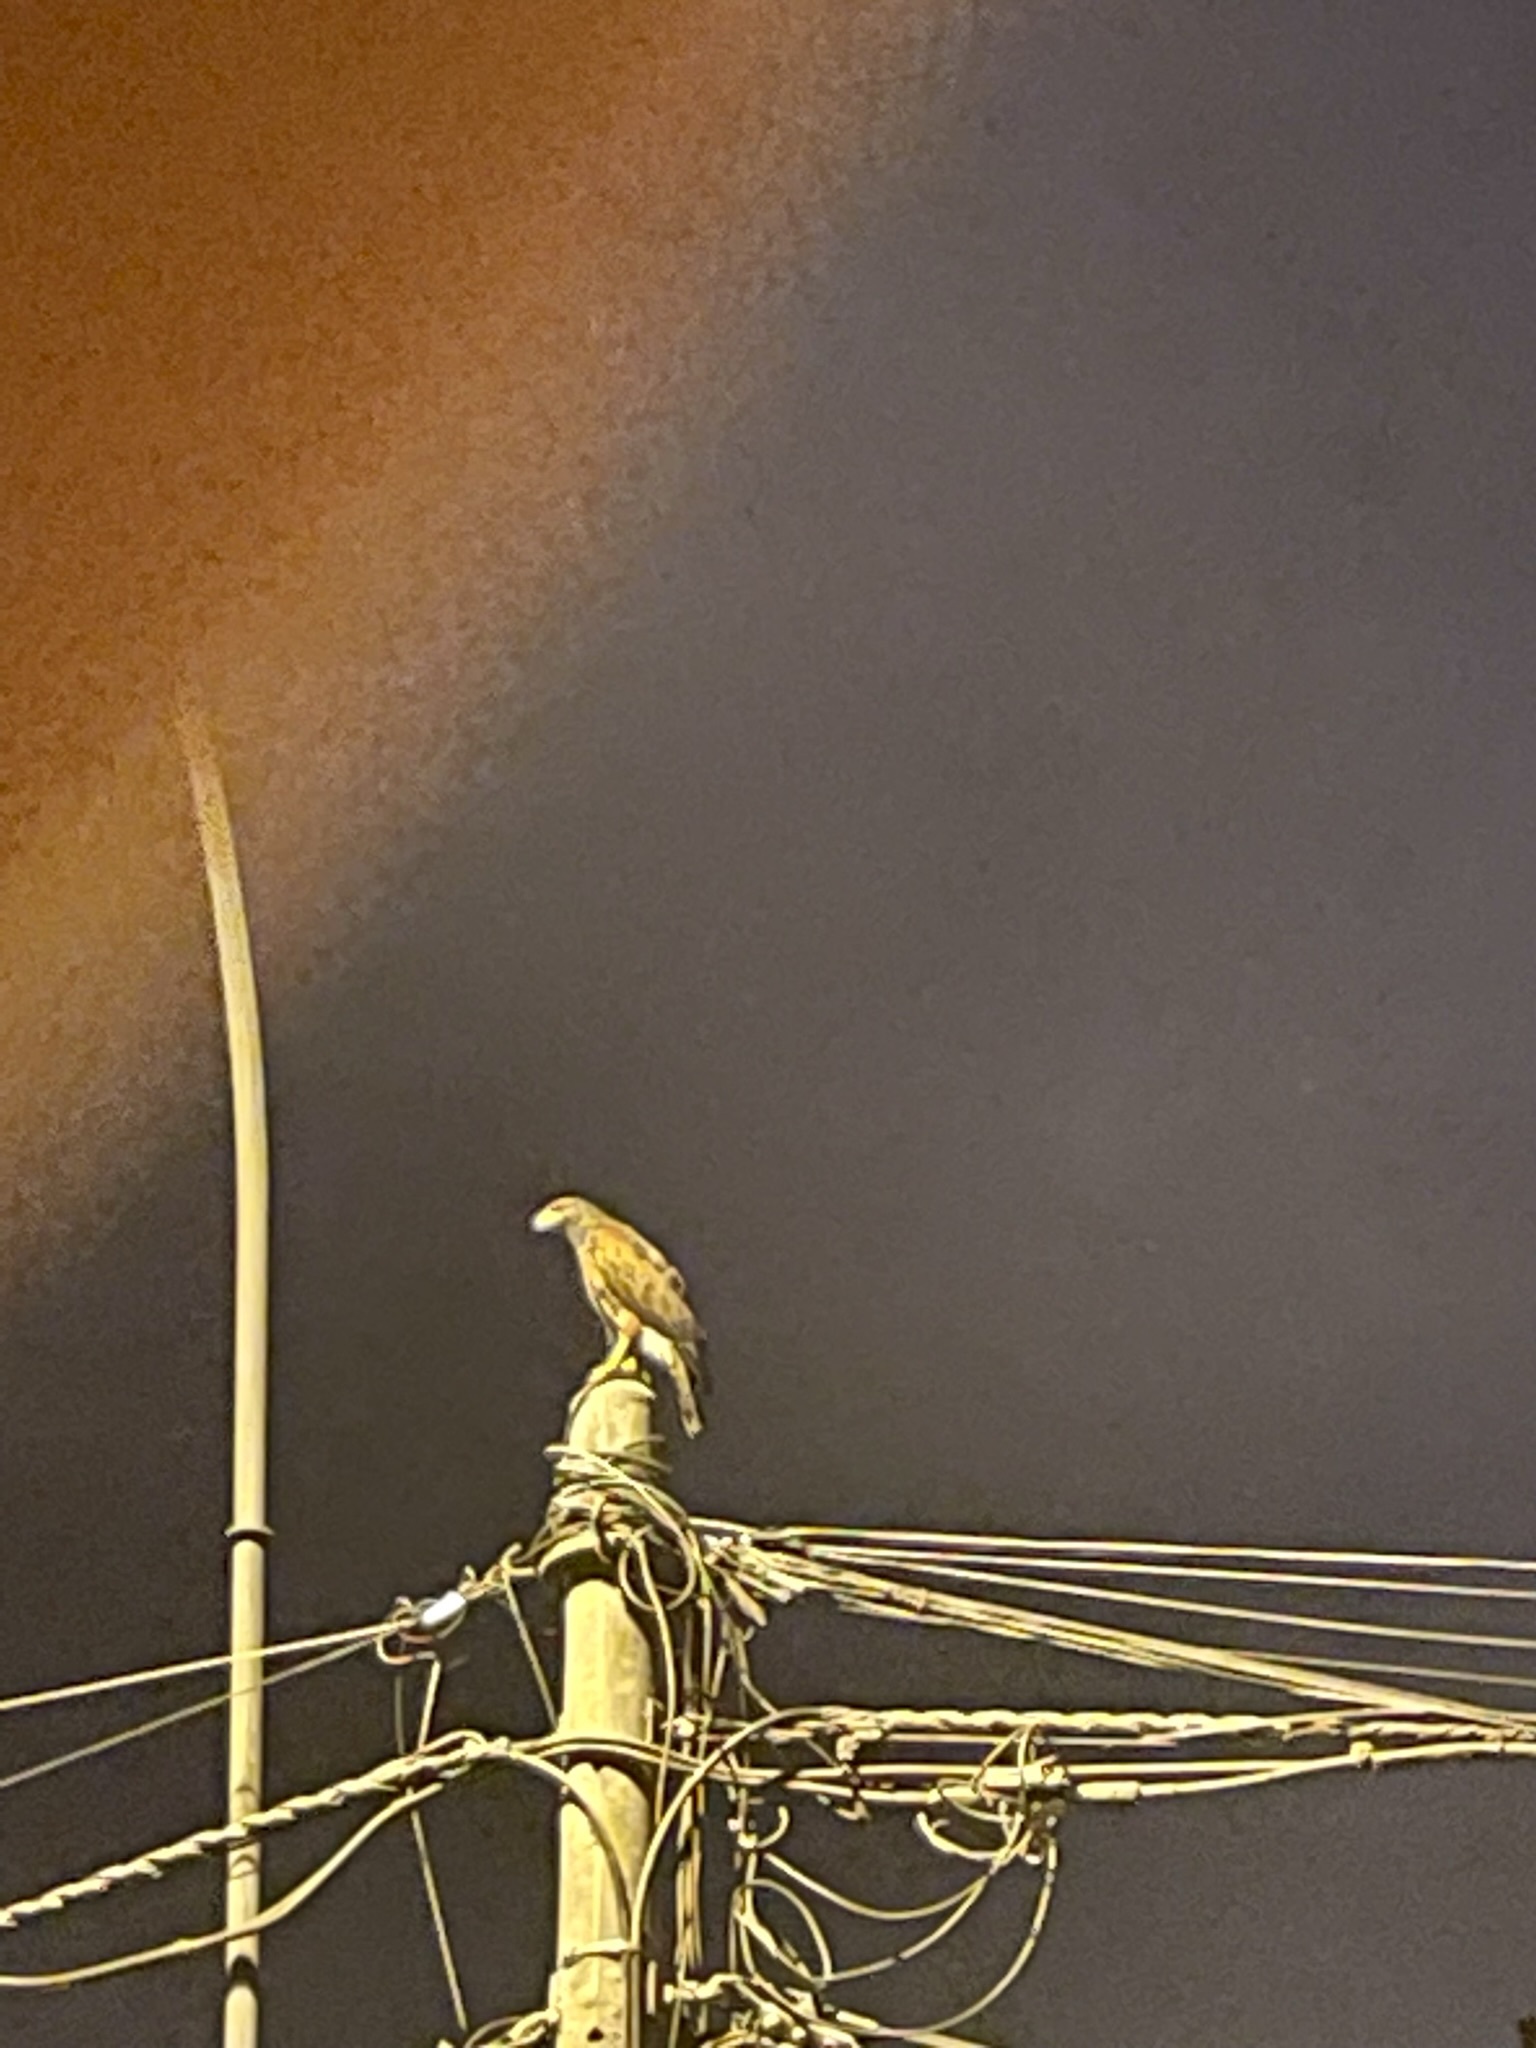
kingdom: Animalia
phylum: Chordata
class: Aves
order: Accipitriformes
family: Accipitridae
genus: Parabuteo
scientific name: Parabuteo unicinctus
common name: Harris's hawk
